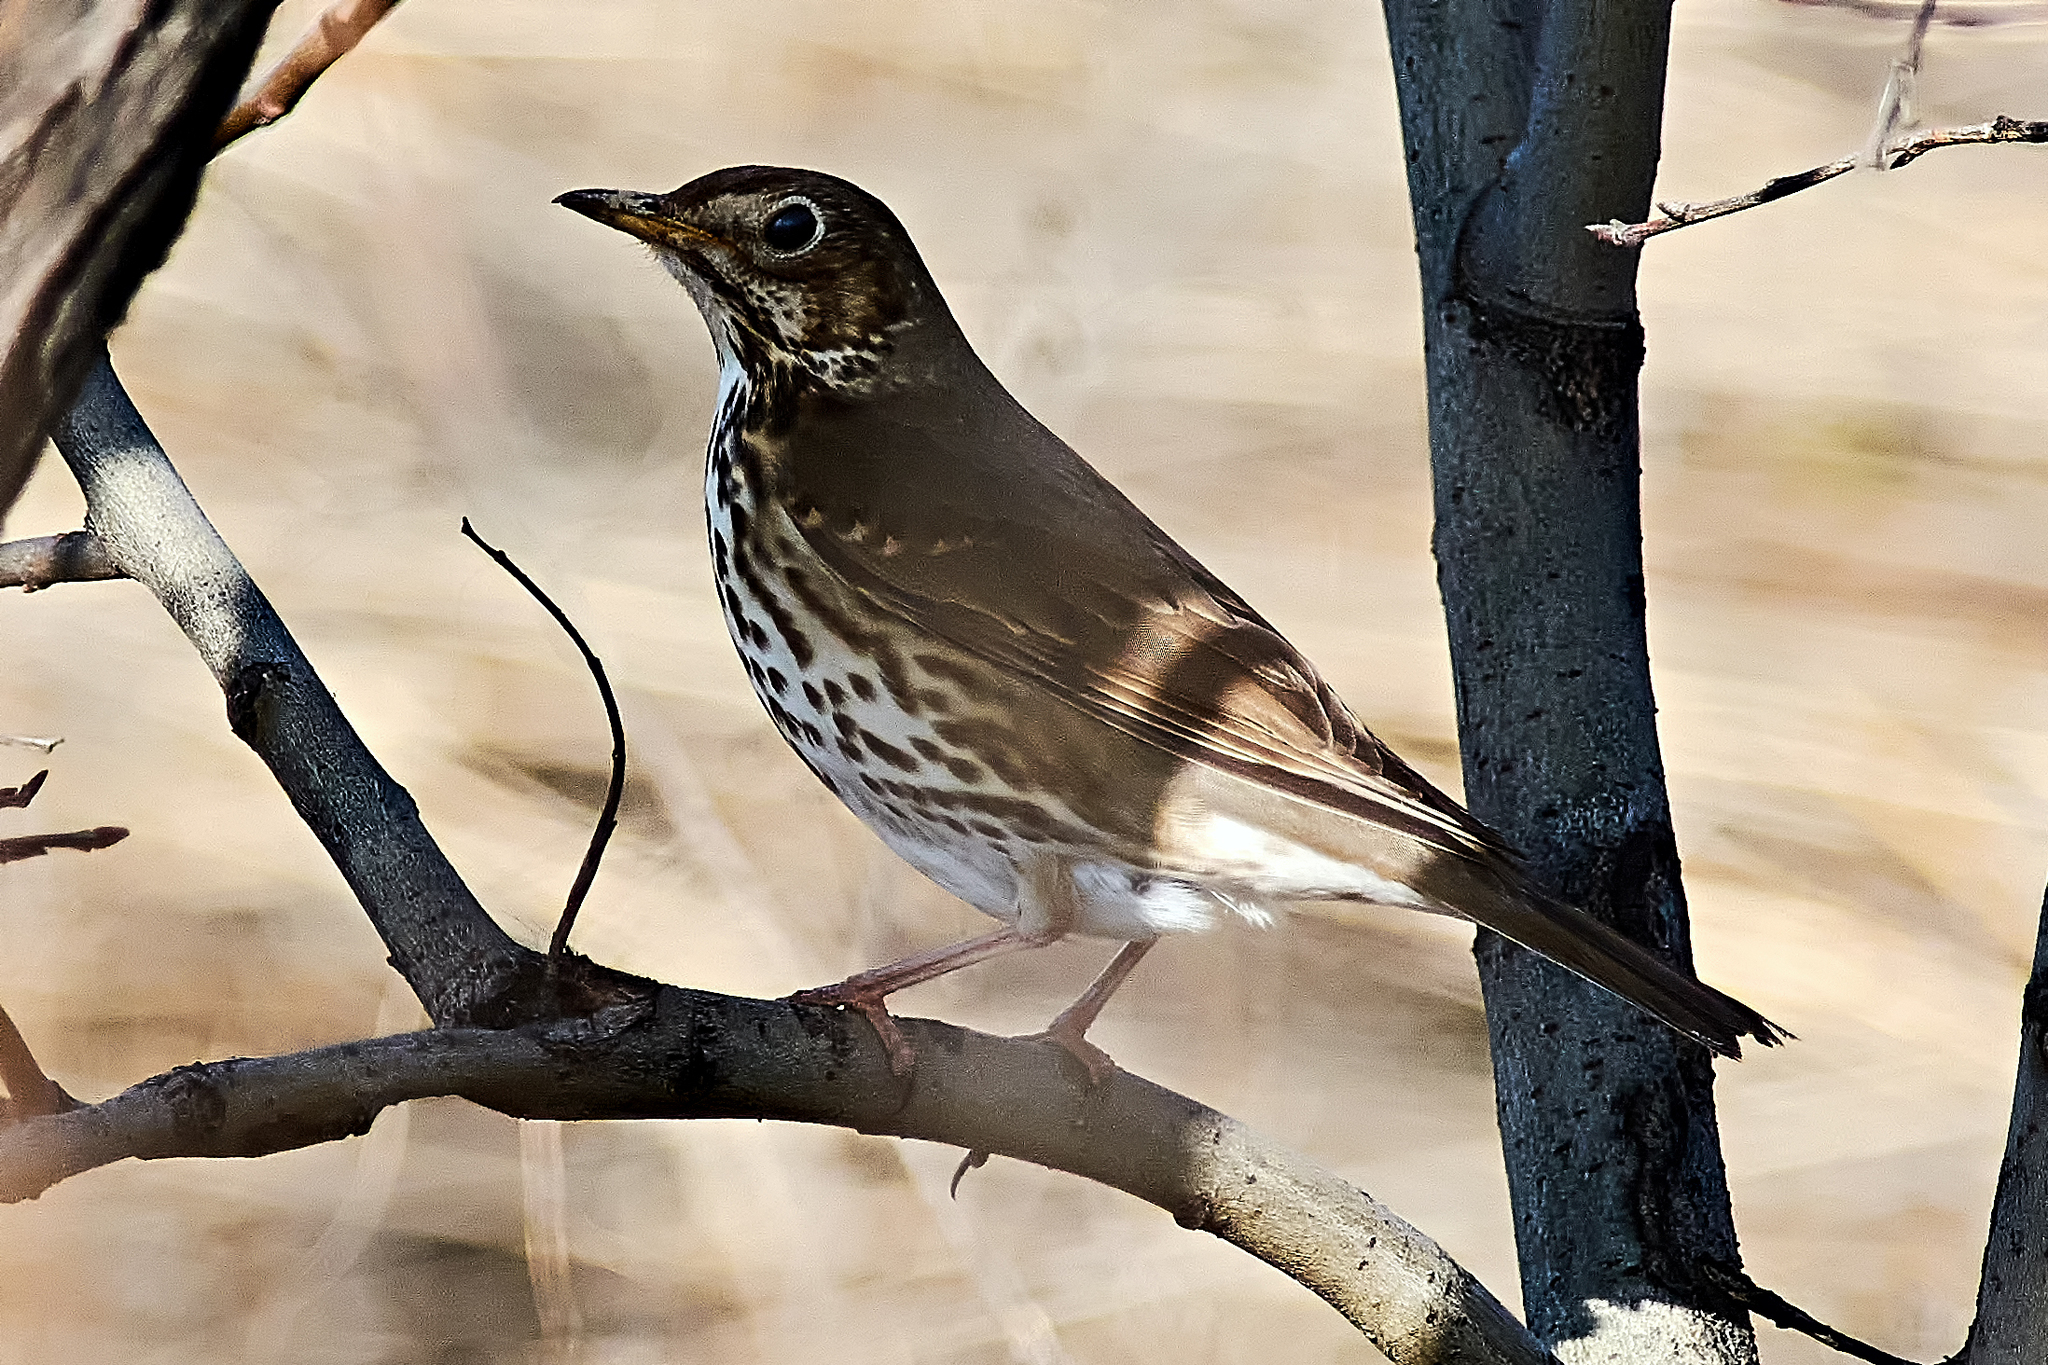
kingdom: Animalia
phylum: Chordata
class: Aves
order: Passeriformes
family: Turdidae
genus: Turdus
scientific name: Turdus philomelos
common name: Song thrush
